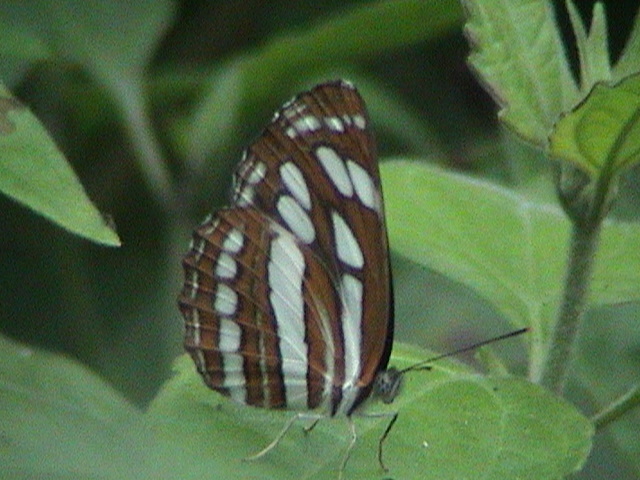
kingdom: Animalia
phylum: Arthropoda
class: Insecta
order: Lepidoptera
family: Nymphalidae
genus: Neptis
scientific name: Neptis hylas
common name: Common sailer
